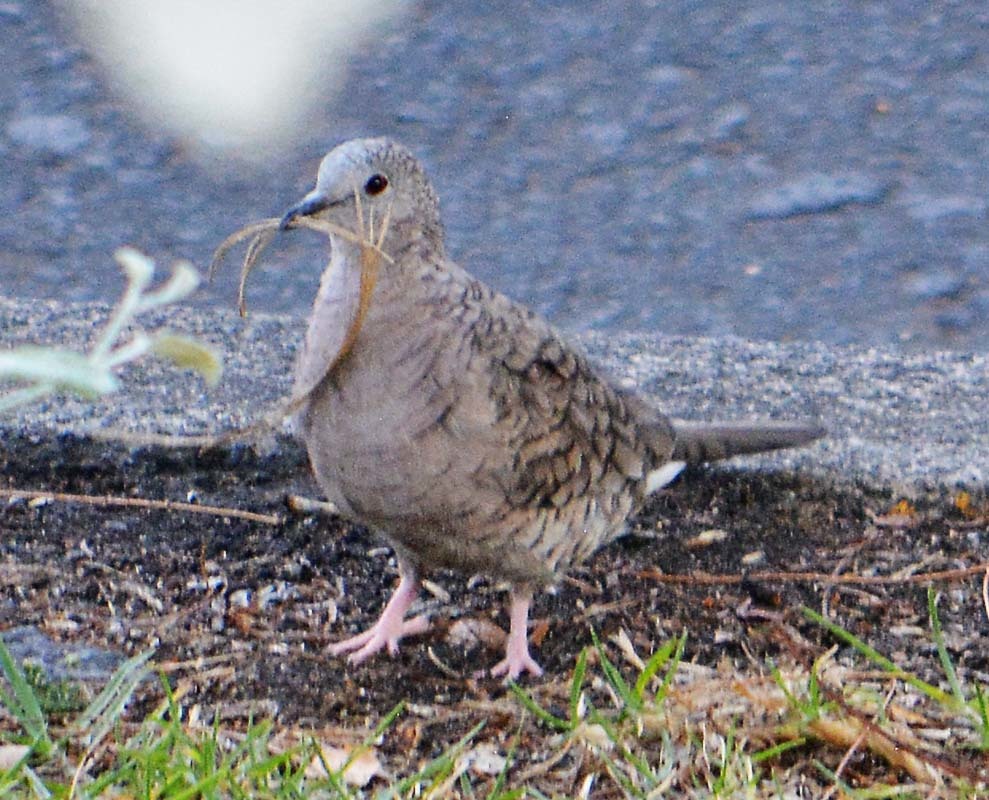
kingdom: Animalia
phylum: Chordata
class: Aves
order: Columbiformes
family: Columbidae
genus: Columbina
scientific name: Columbina inca
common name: Inca dove
